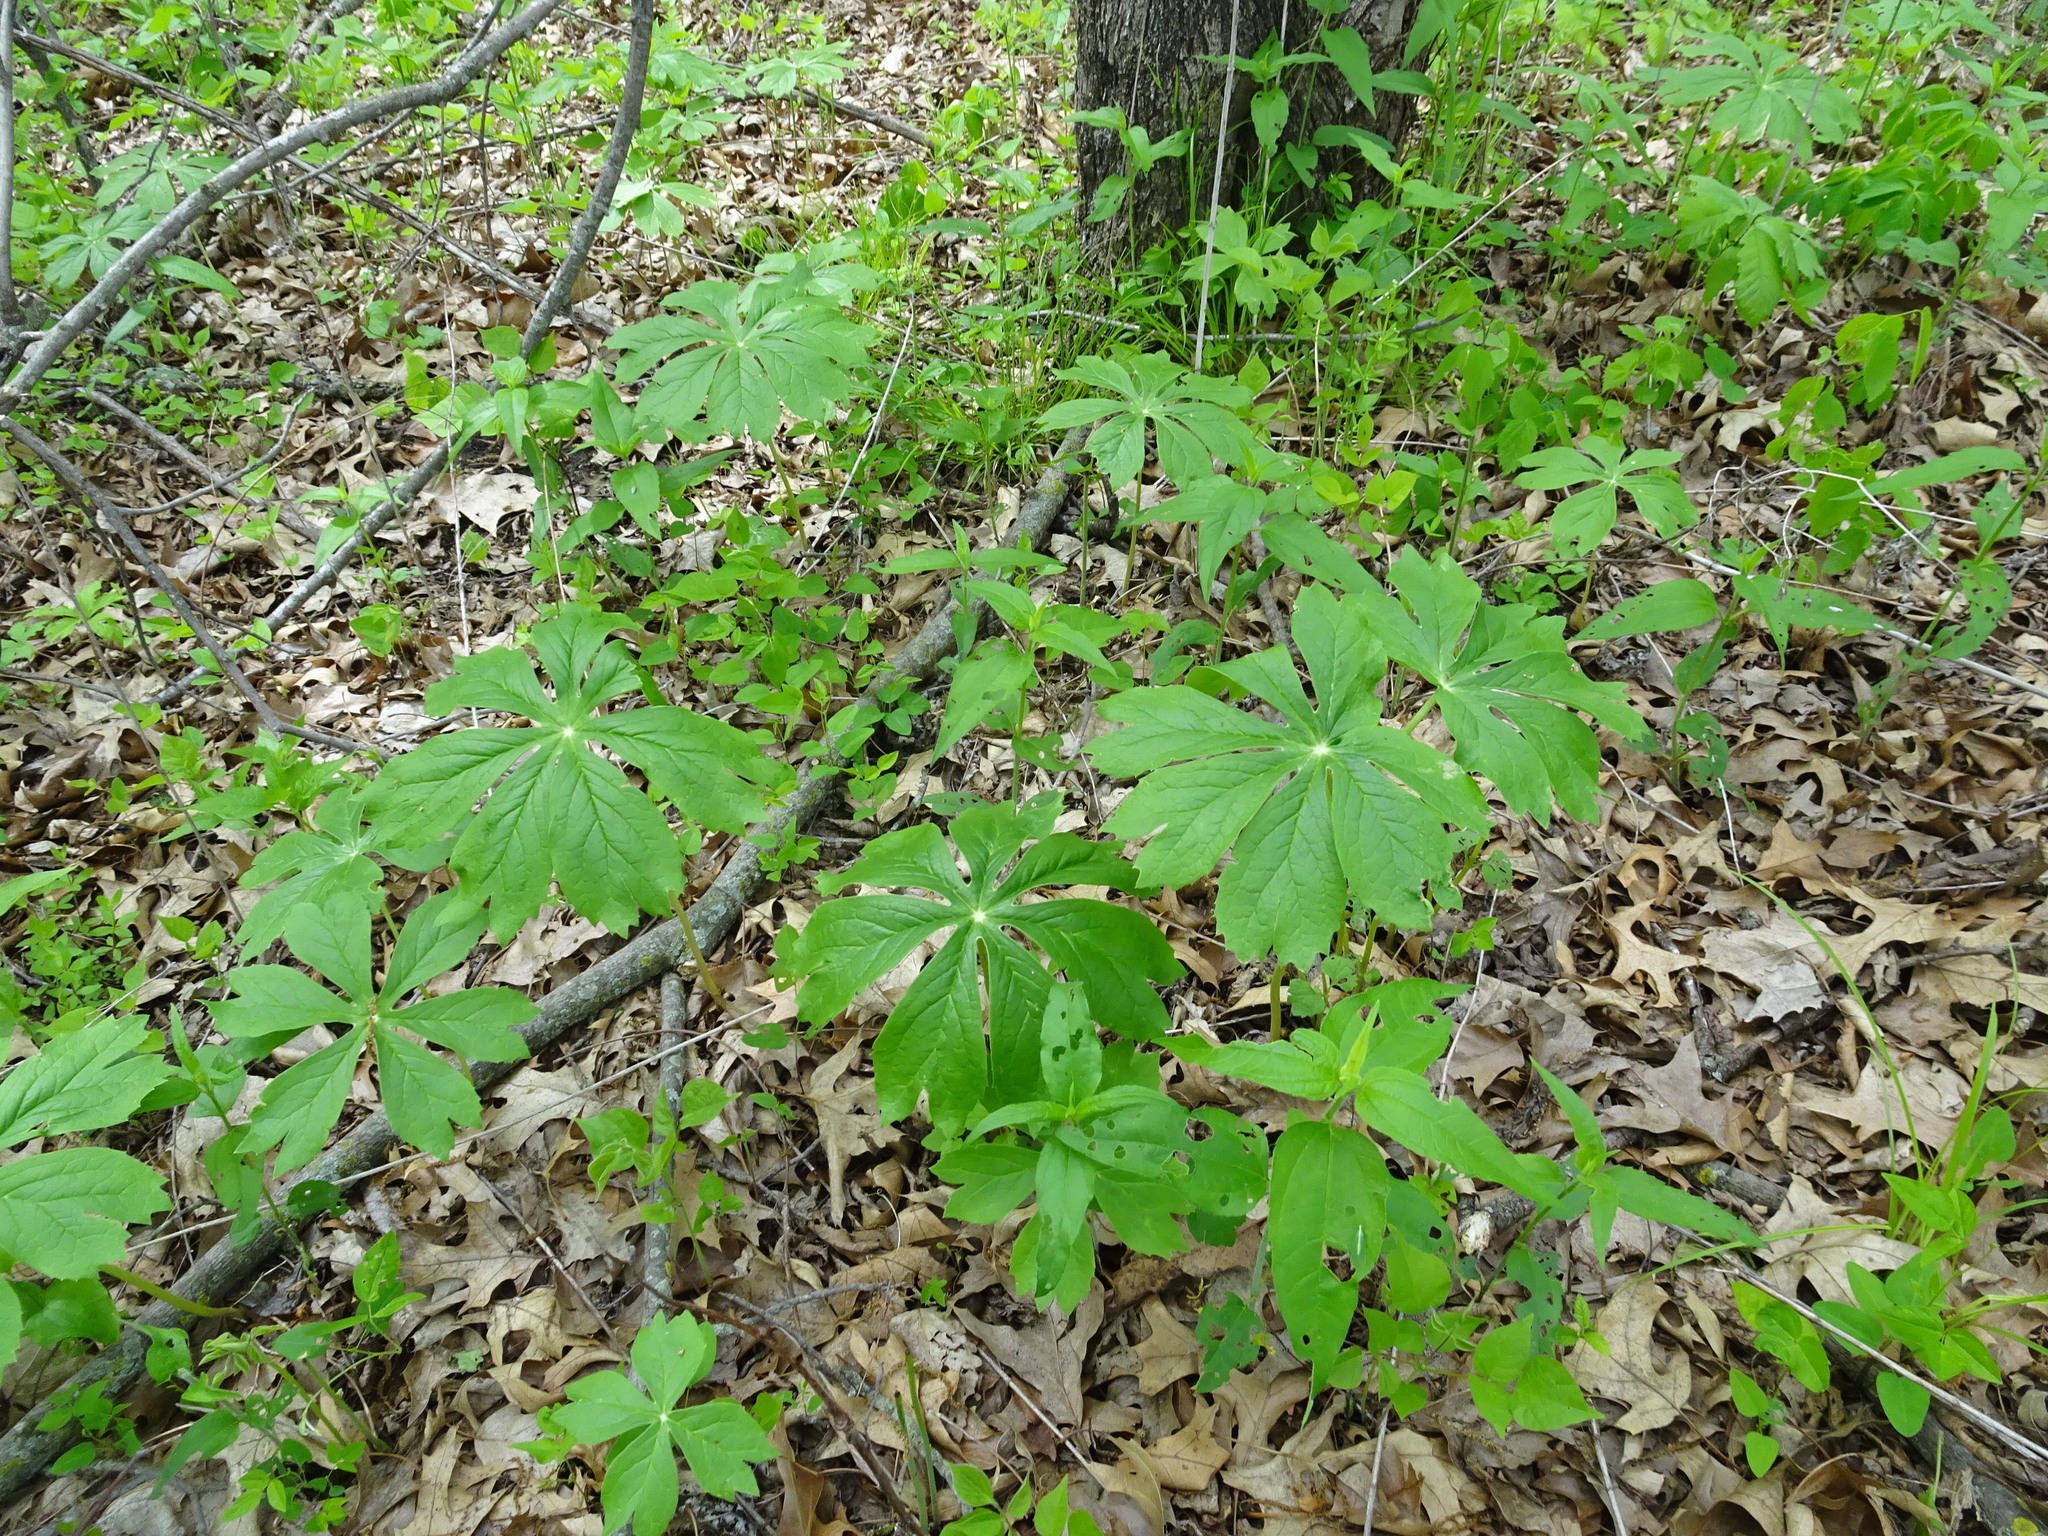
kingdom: Plantae
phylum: Tracheophyta
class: Magnoliopsida
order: Ranunculales
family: Berberidaceae
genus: Podophyllum
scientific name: Podophyllum peltatum
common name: Wild mandrake
